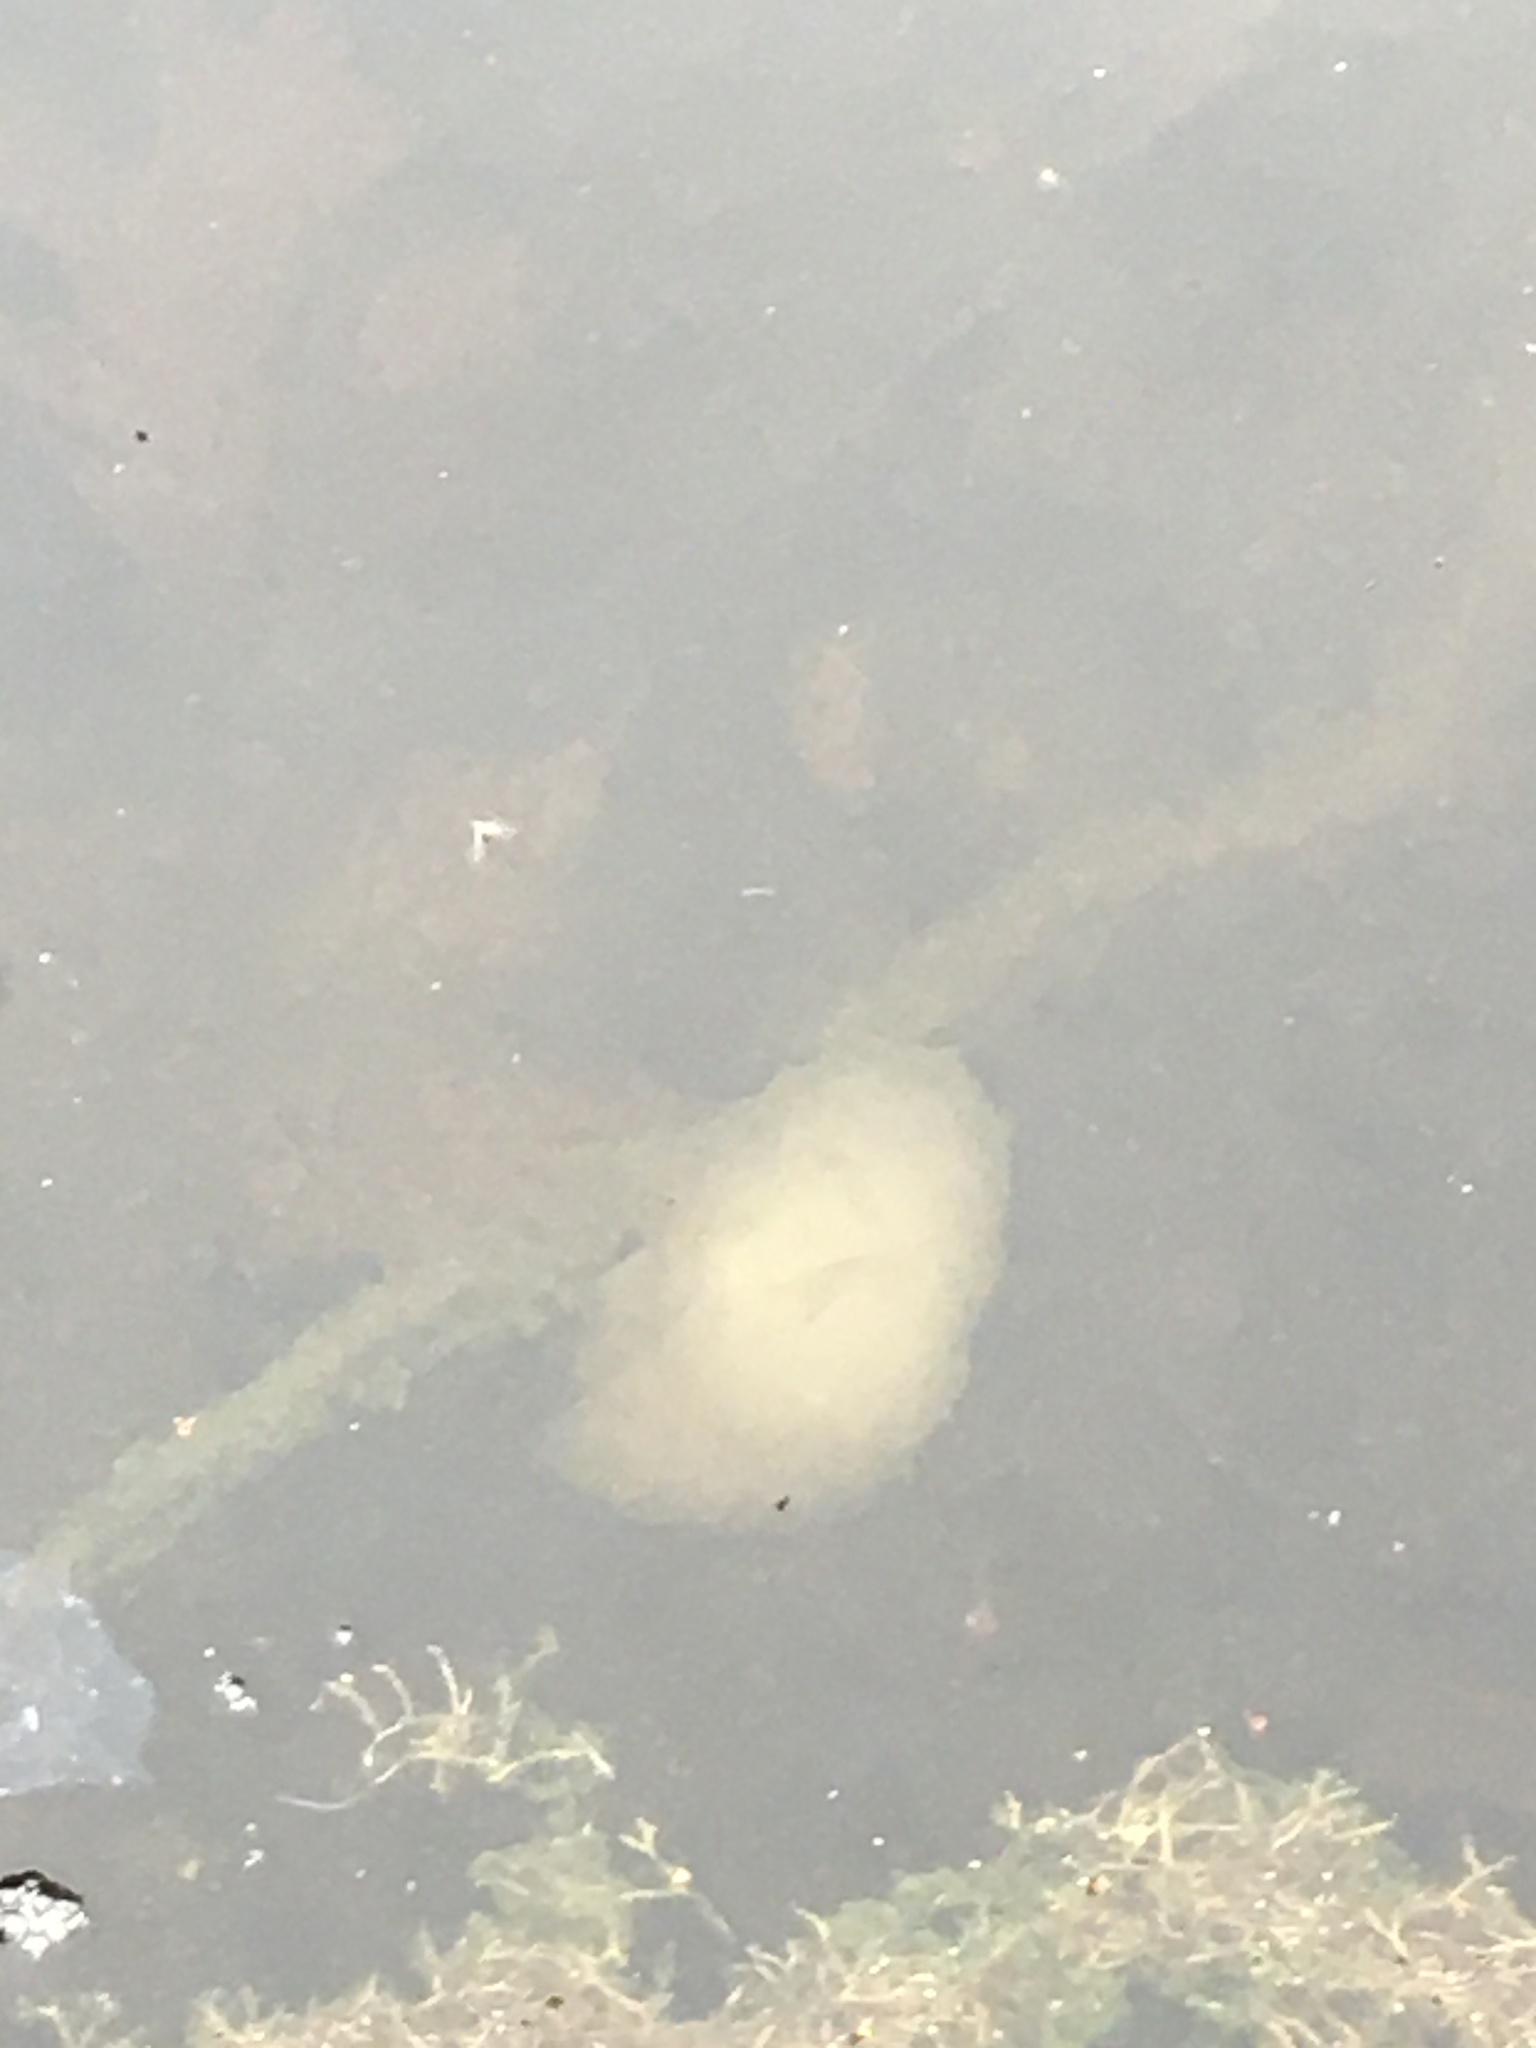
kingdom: Animalia
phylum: Chordata
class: Amphibia
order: Caudata
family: Ambystomatidae
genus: Ambystoma
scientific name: Ambystoma maculatum
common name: Spotted salamander
